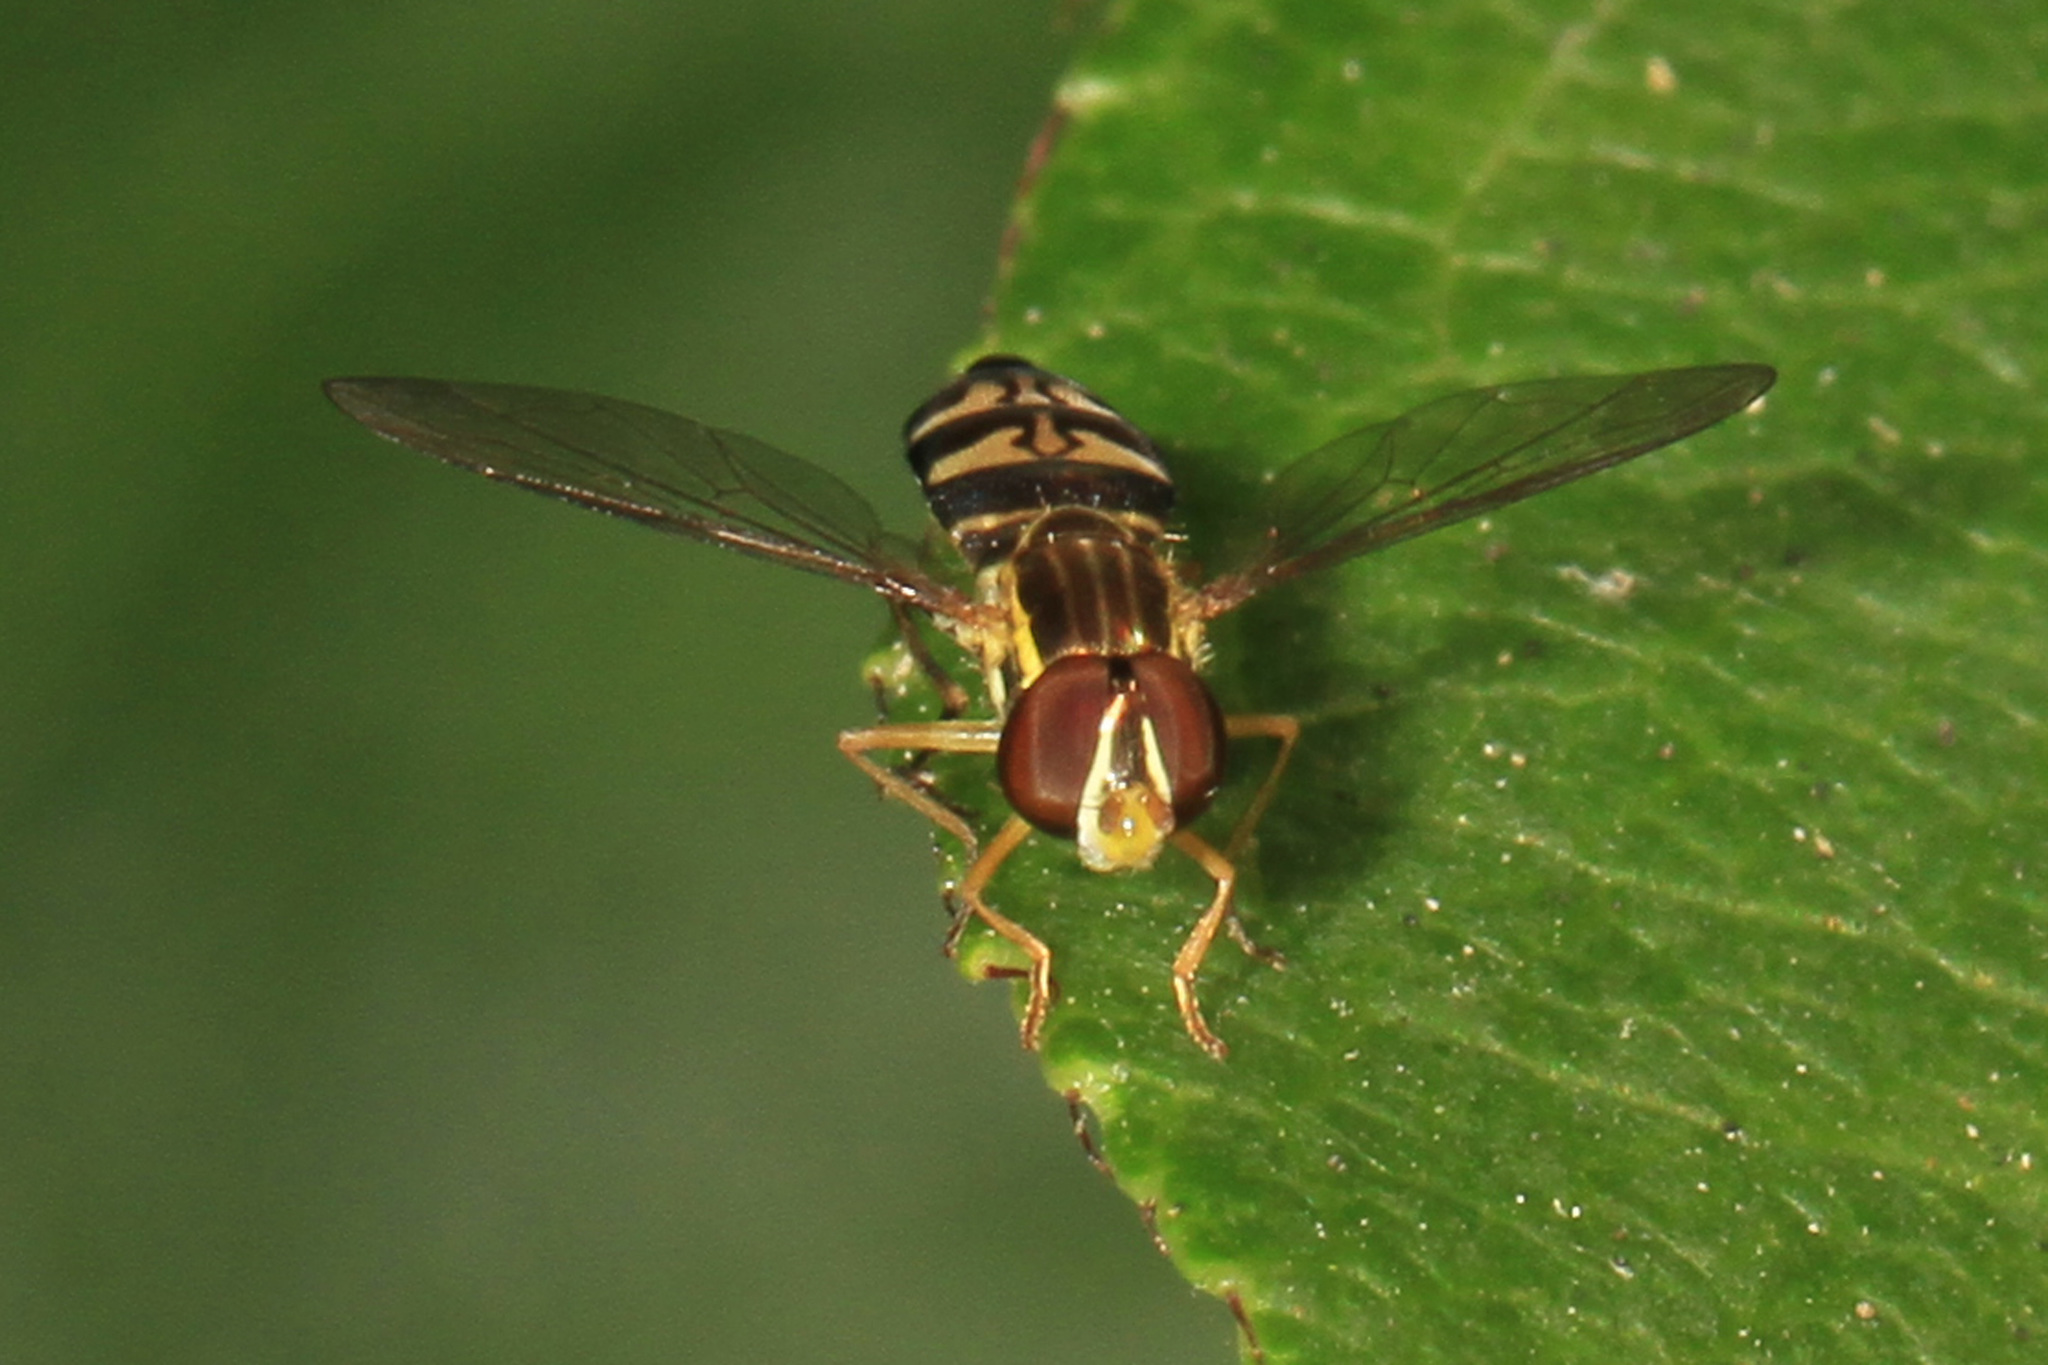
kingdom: Animalia
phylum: Arthropoda
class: Insecta
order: Diptera
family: Syrphidae
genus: Toxomerus
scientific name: Toxomerus occidentalis
